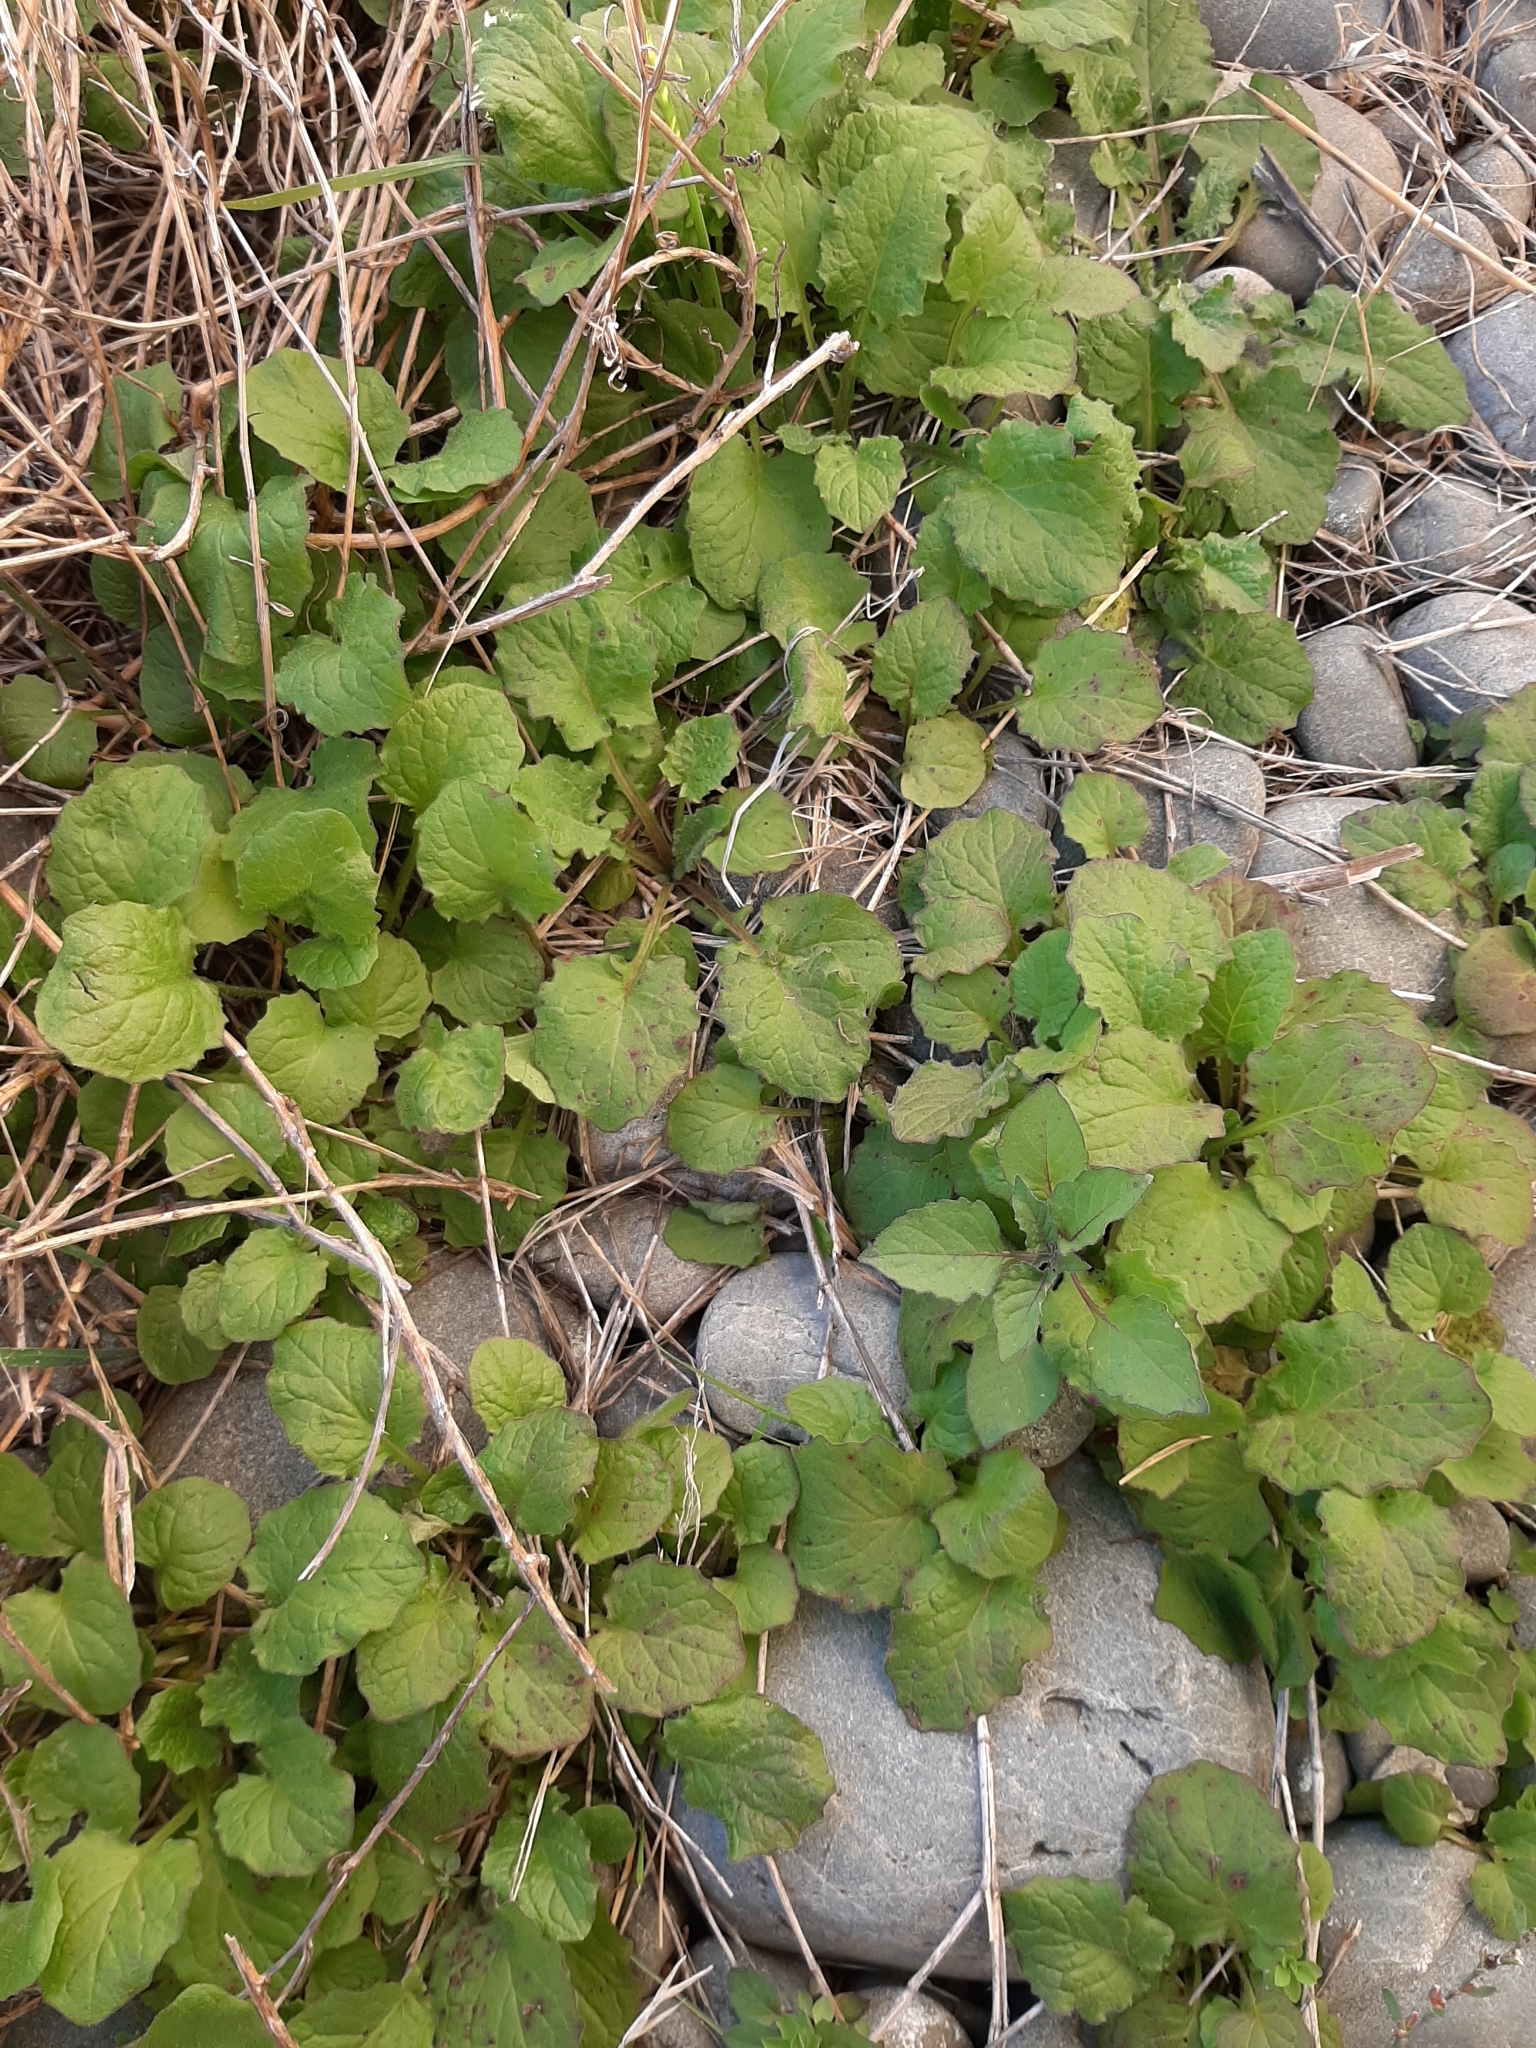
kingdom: Plantae
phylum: Tracheophyta
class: Magnoliopsida
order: Asterales
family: Asteraceae
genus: Lapsana
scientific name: Lapsana communis
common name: Nipplewort
